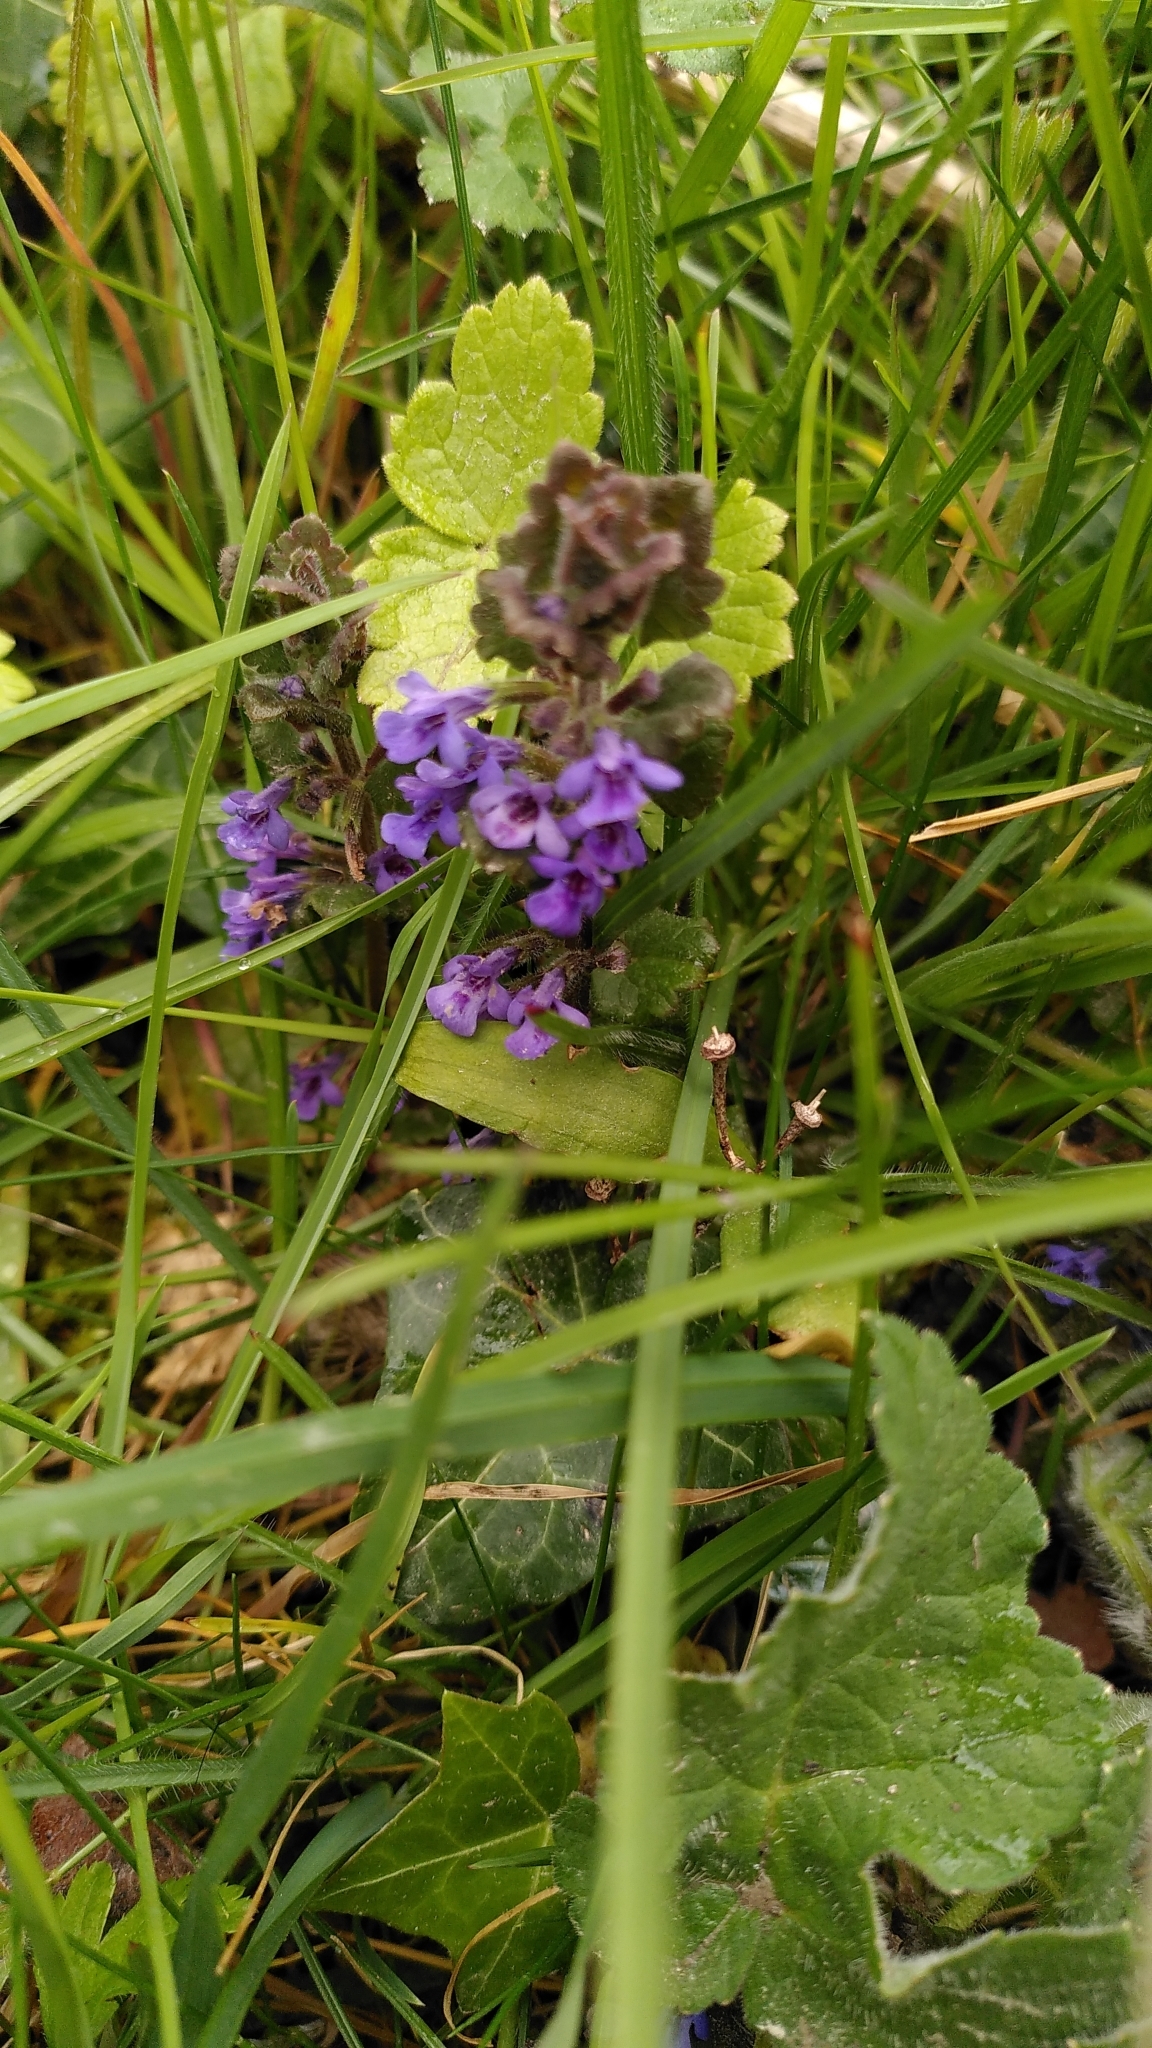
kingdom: Plantae
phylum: Tracheophyta
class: Magnoliopsida
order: Lamiales
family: Lamiaceae
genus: Glechoma
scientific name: Glechoma hederacea
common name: Ground ivy
